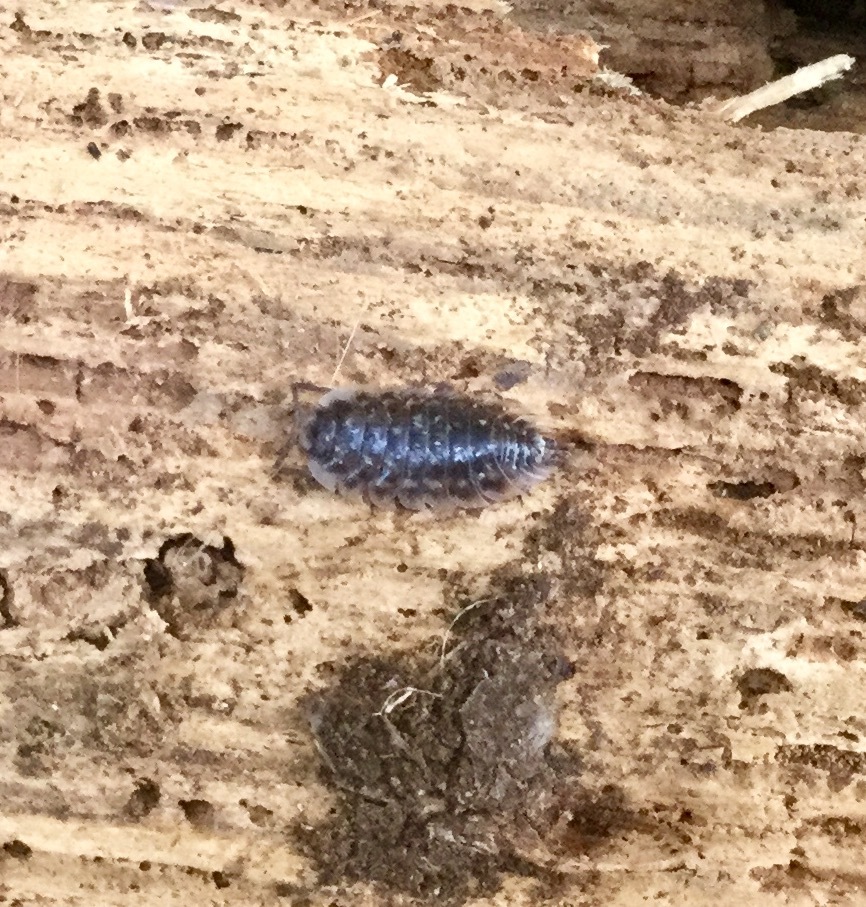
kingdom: Animalia
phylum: Arthropoda
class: Malacostraca
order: Isopoda
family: Oniscidae
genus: Oniscus
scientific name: Oniscus asellus
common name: Common shiny woodlouse
